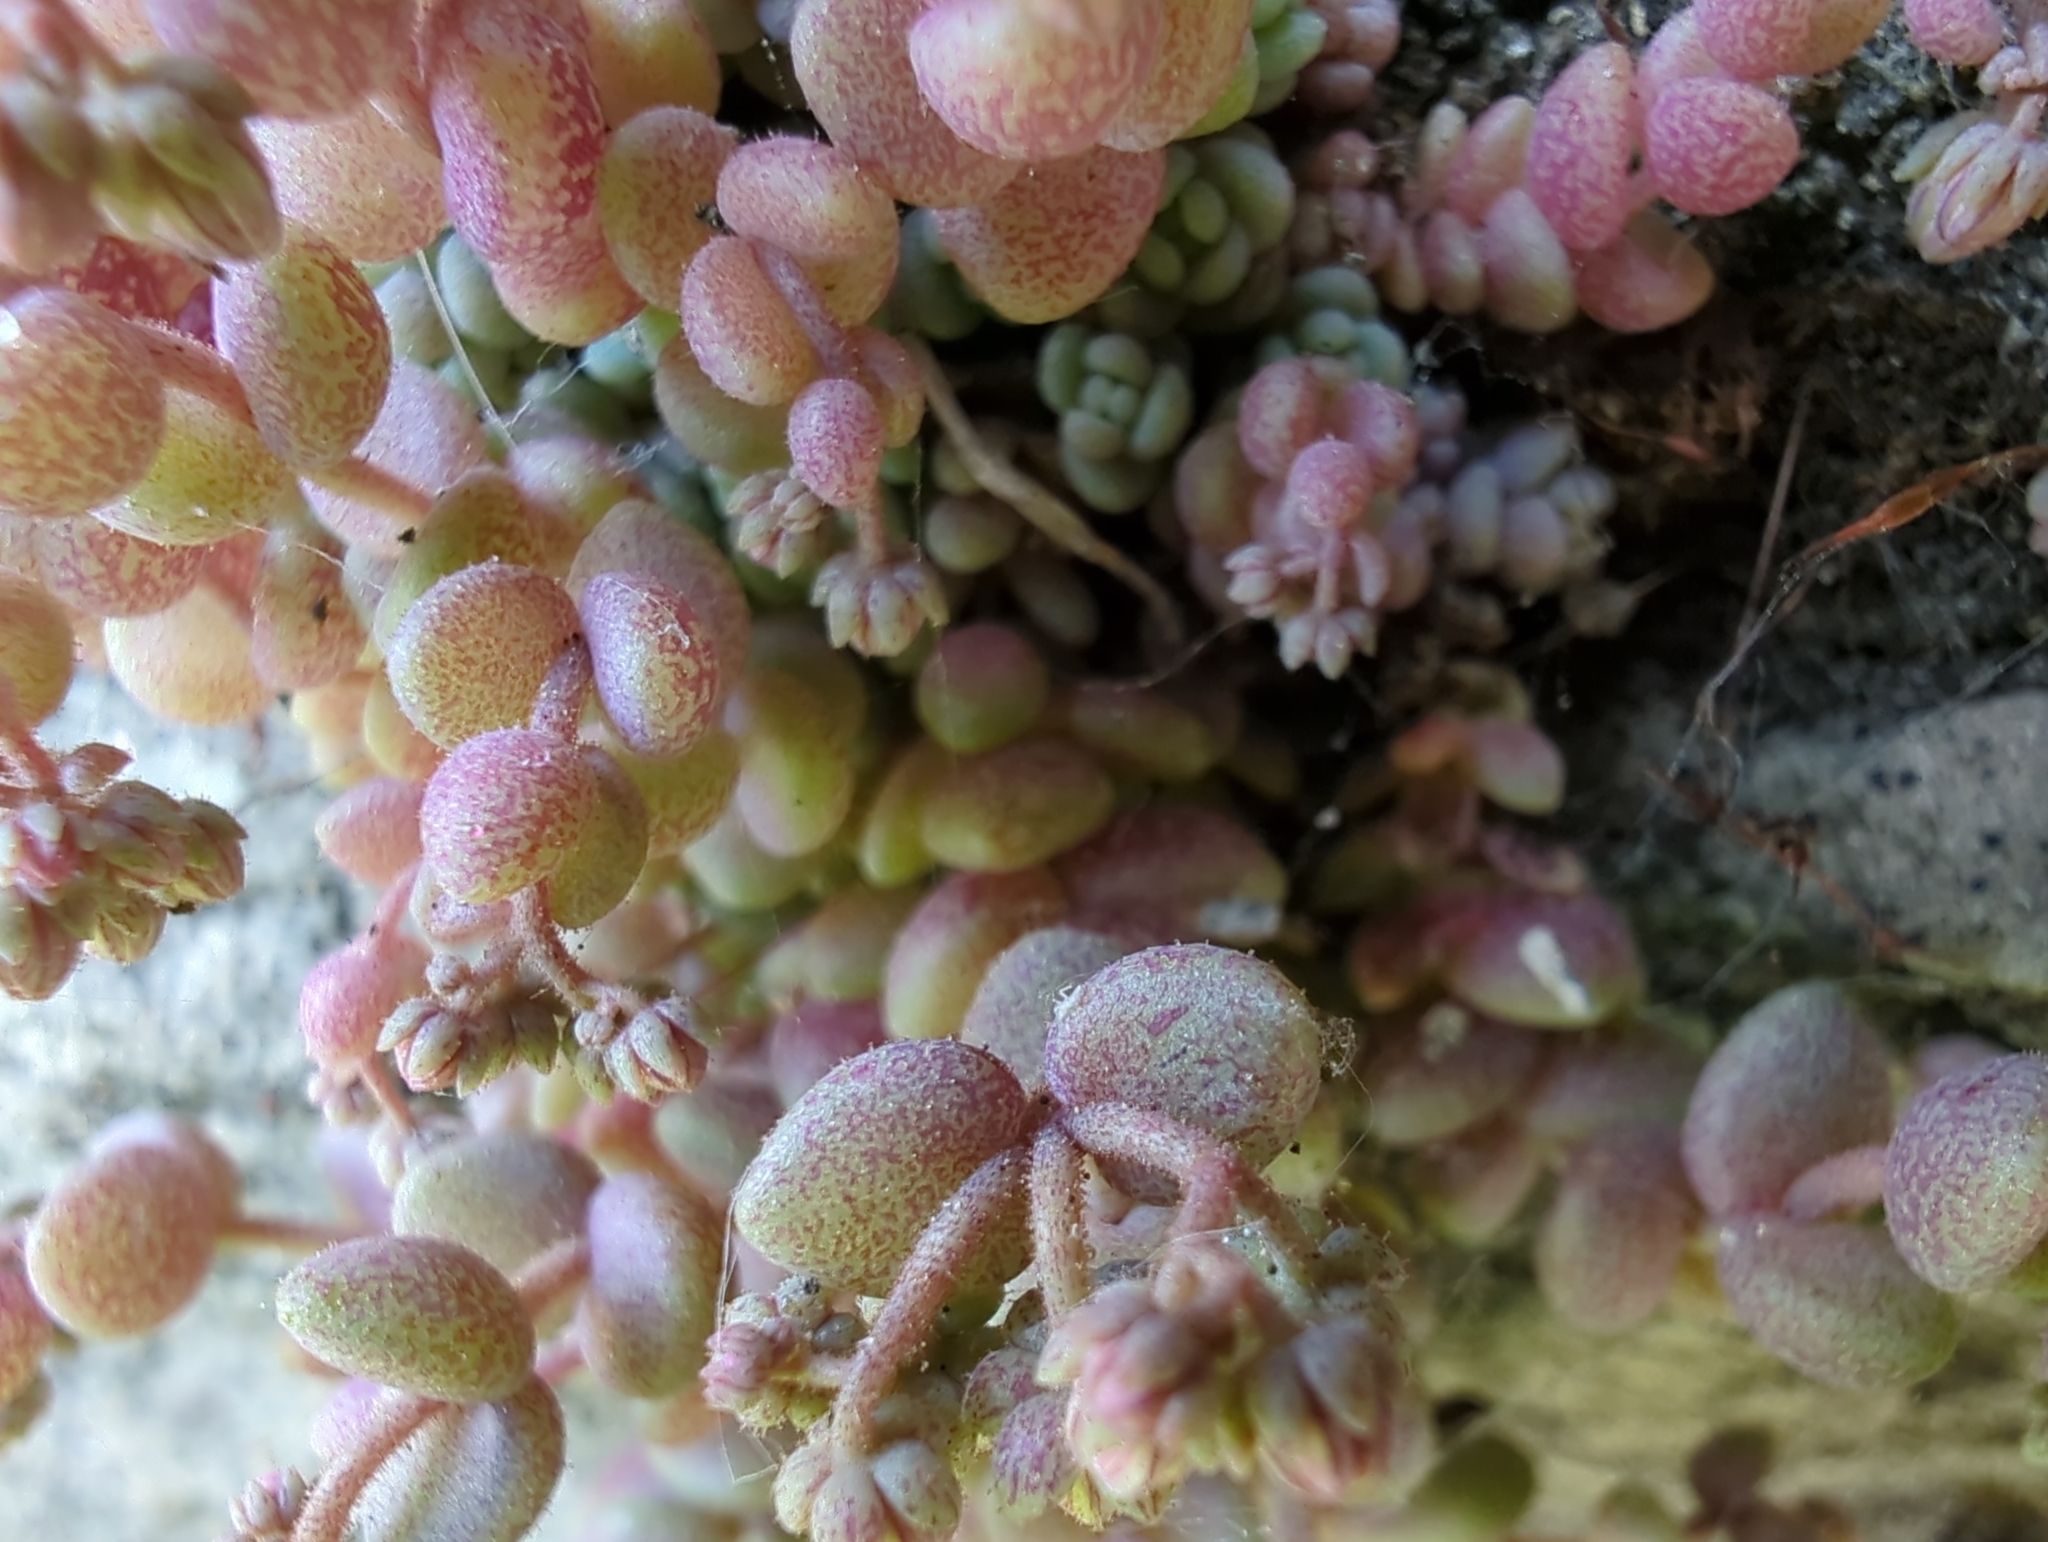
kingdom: Plantae
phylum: Tracheophyta
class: Magnoliopsida
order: Saxifragales
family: Crassulaceae
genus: Sedum
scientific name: Sedum dasyphyllum
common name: Thick-leaf stonecrop
